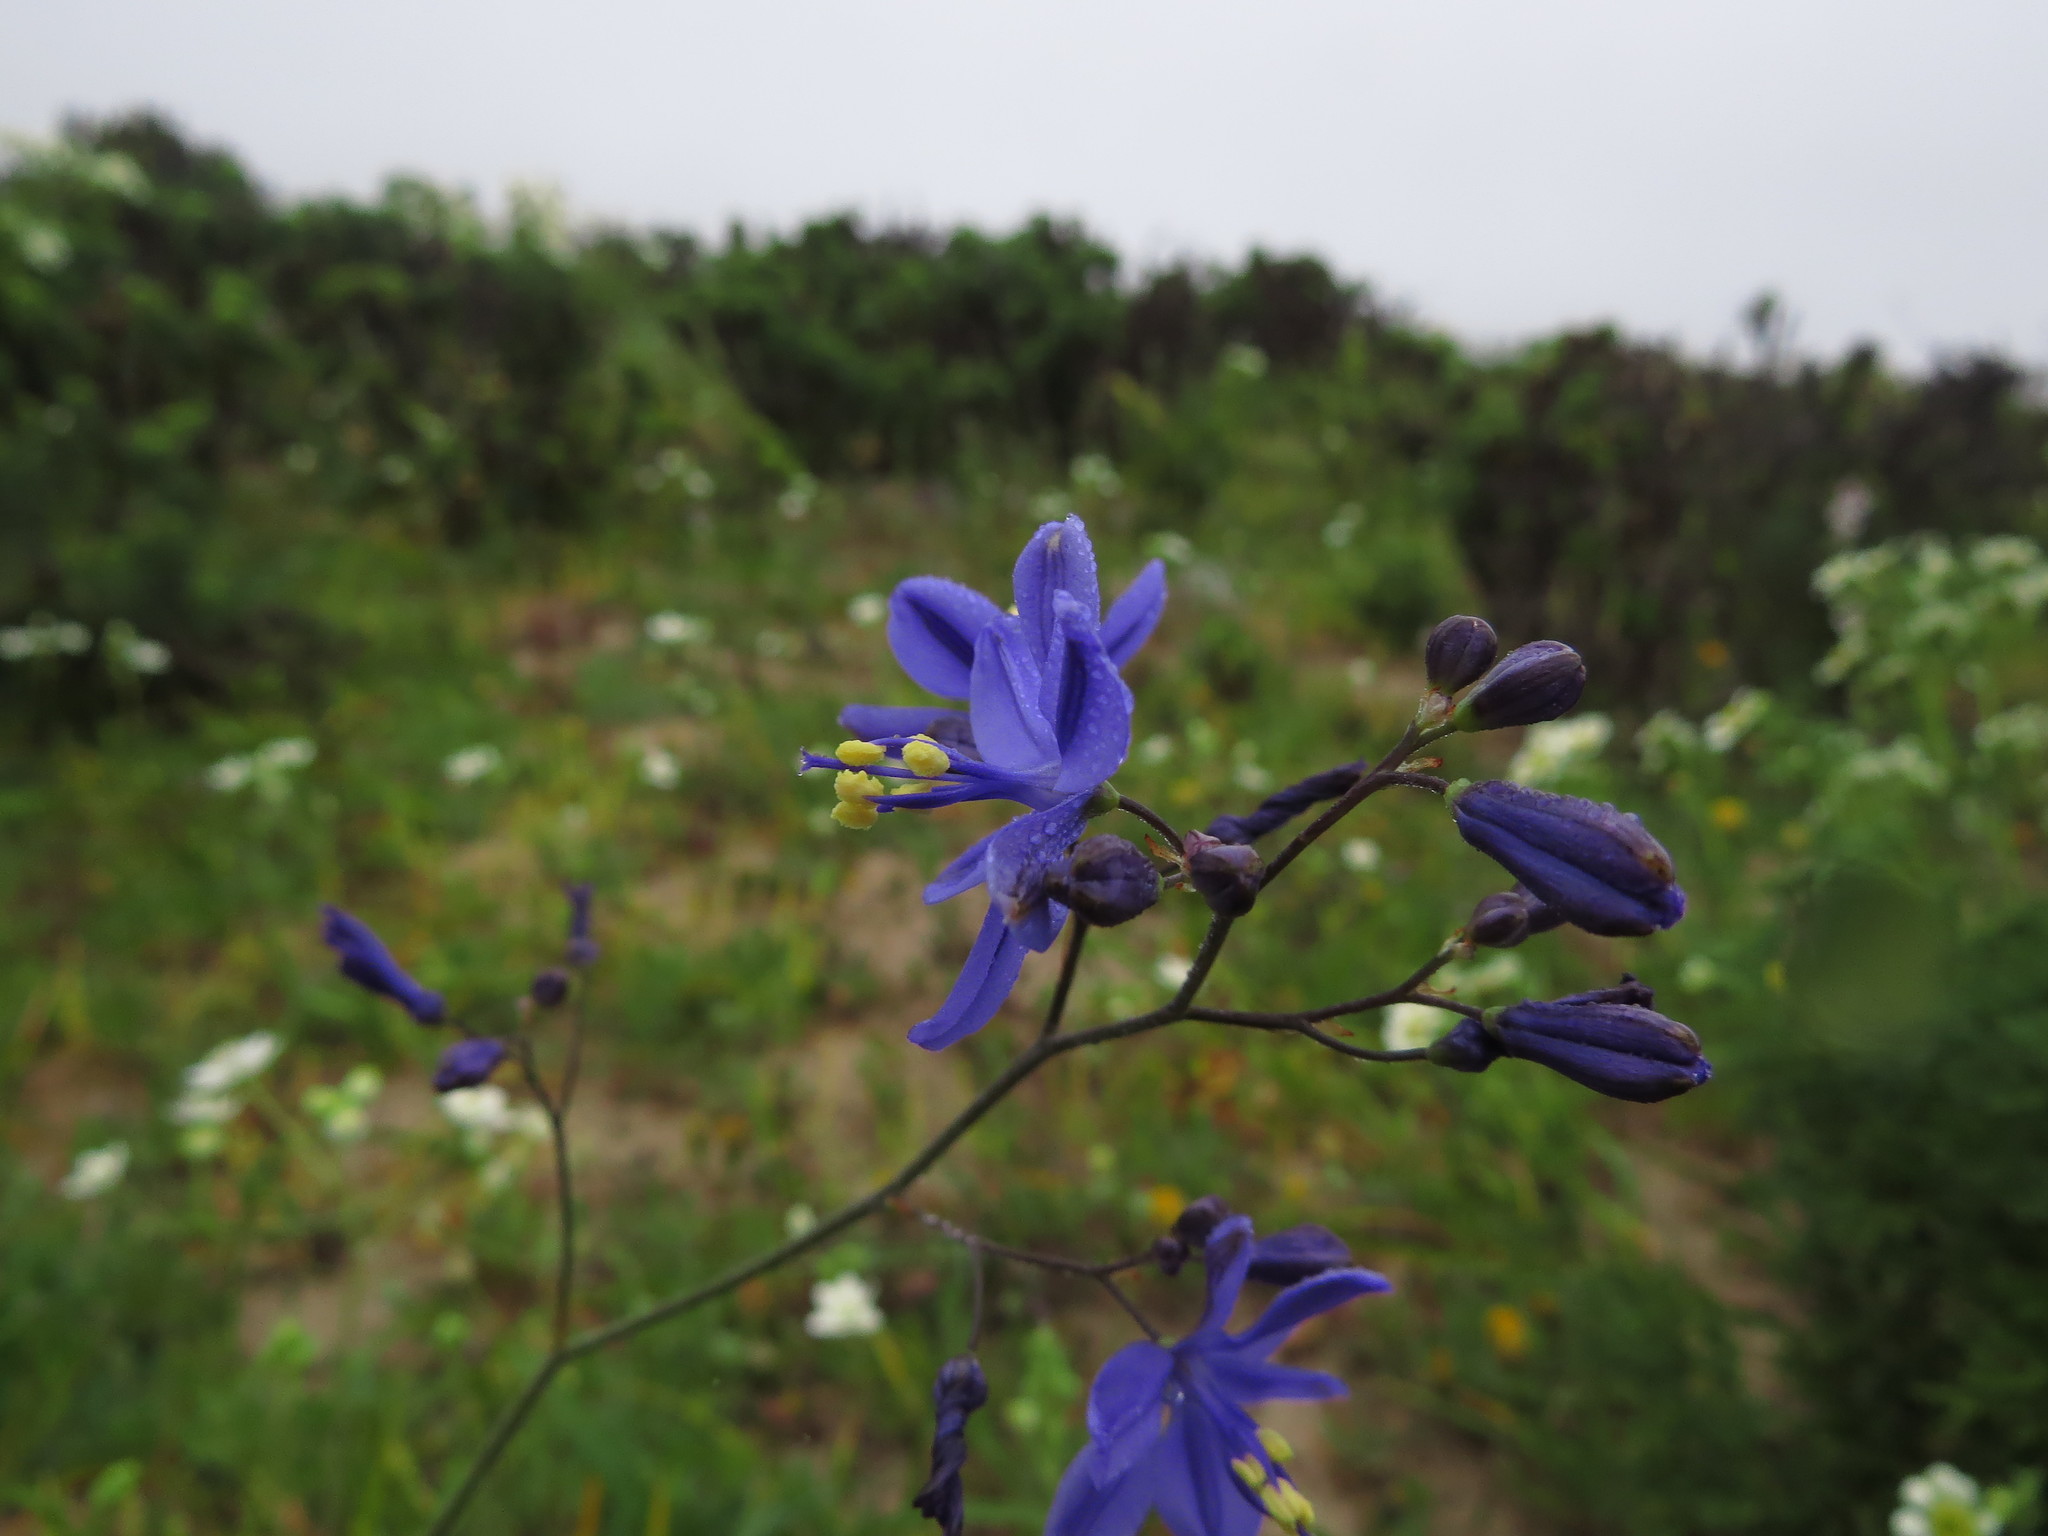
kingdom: Plantae
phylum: Tracheophyta
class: Liliopsida
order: Asparagales
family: Asphodelaceae
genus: Pasithea
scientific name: Pasithea caerulea
